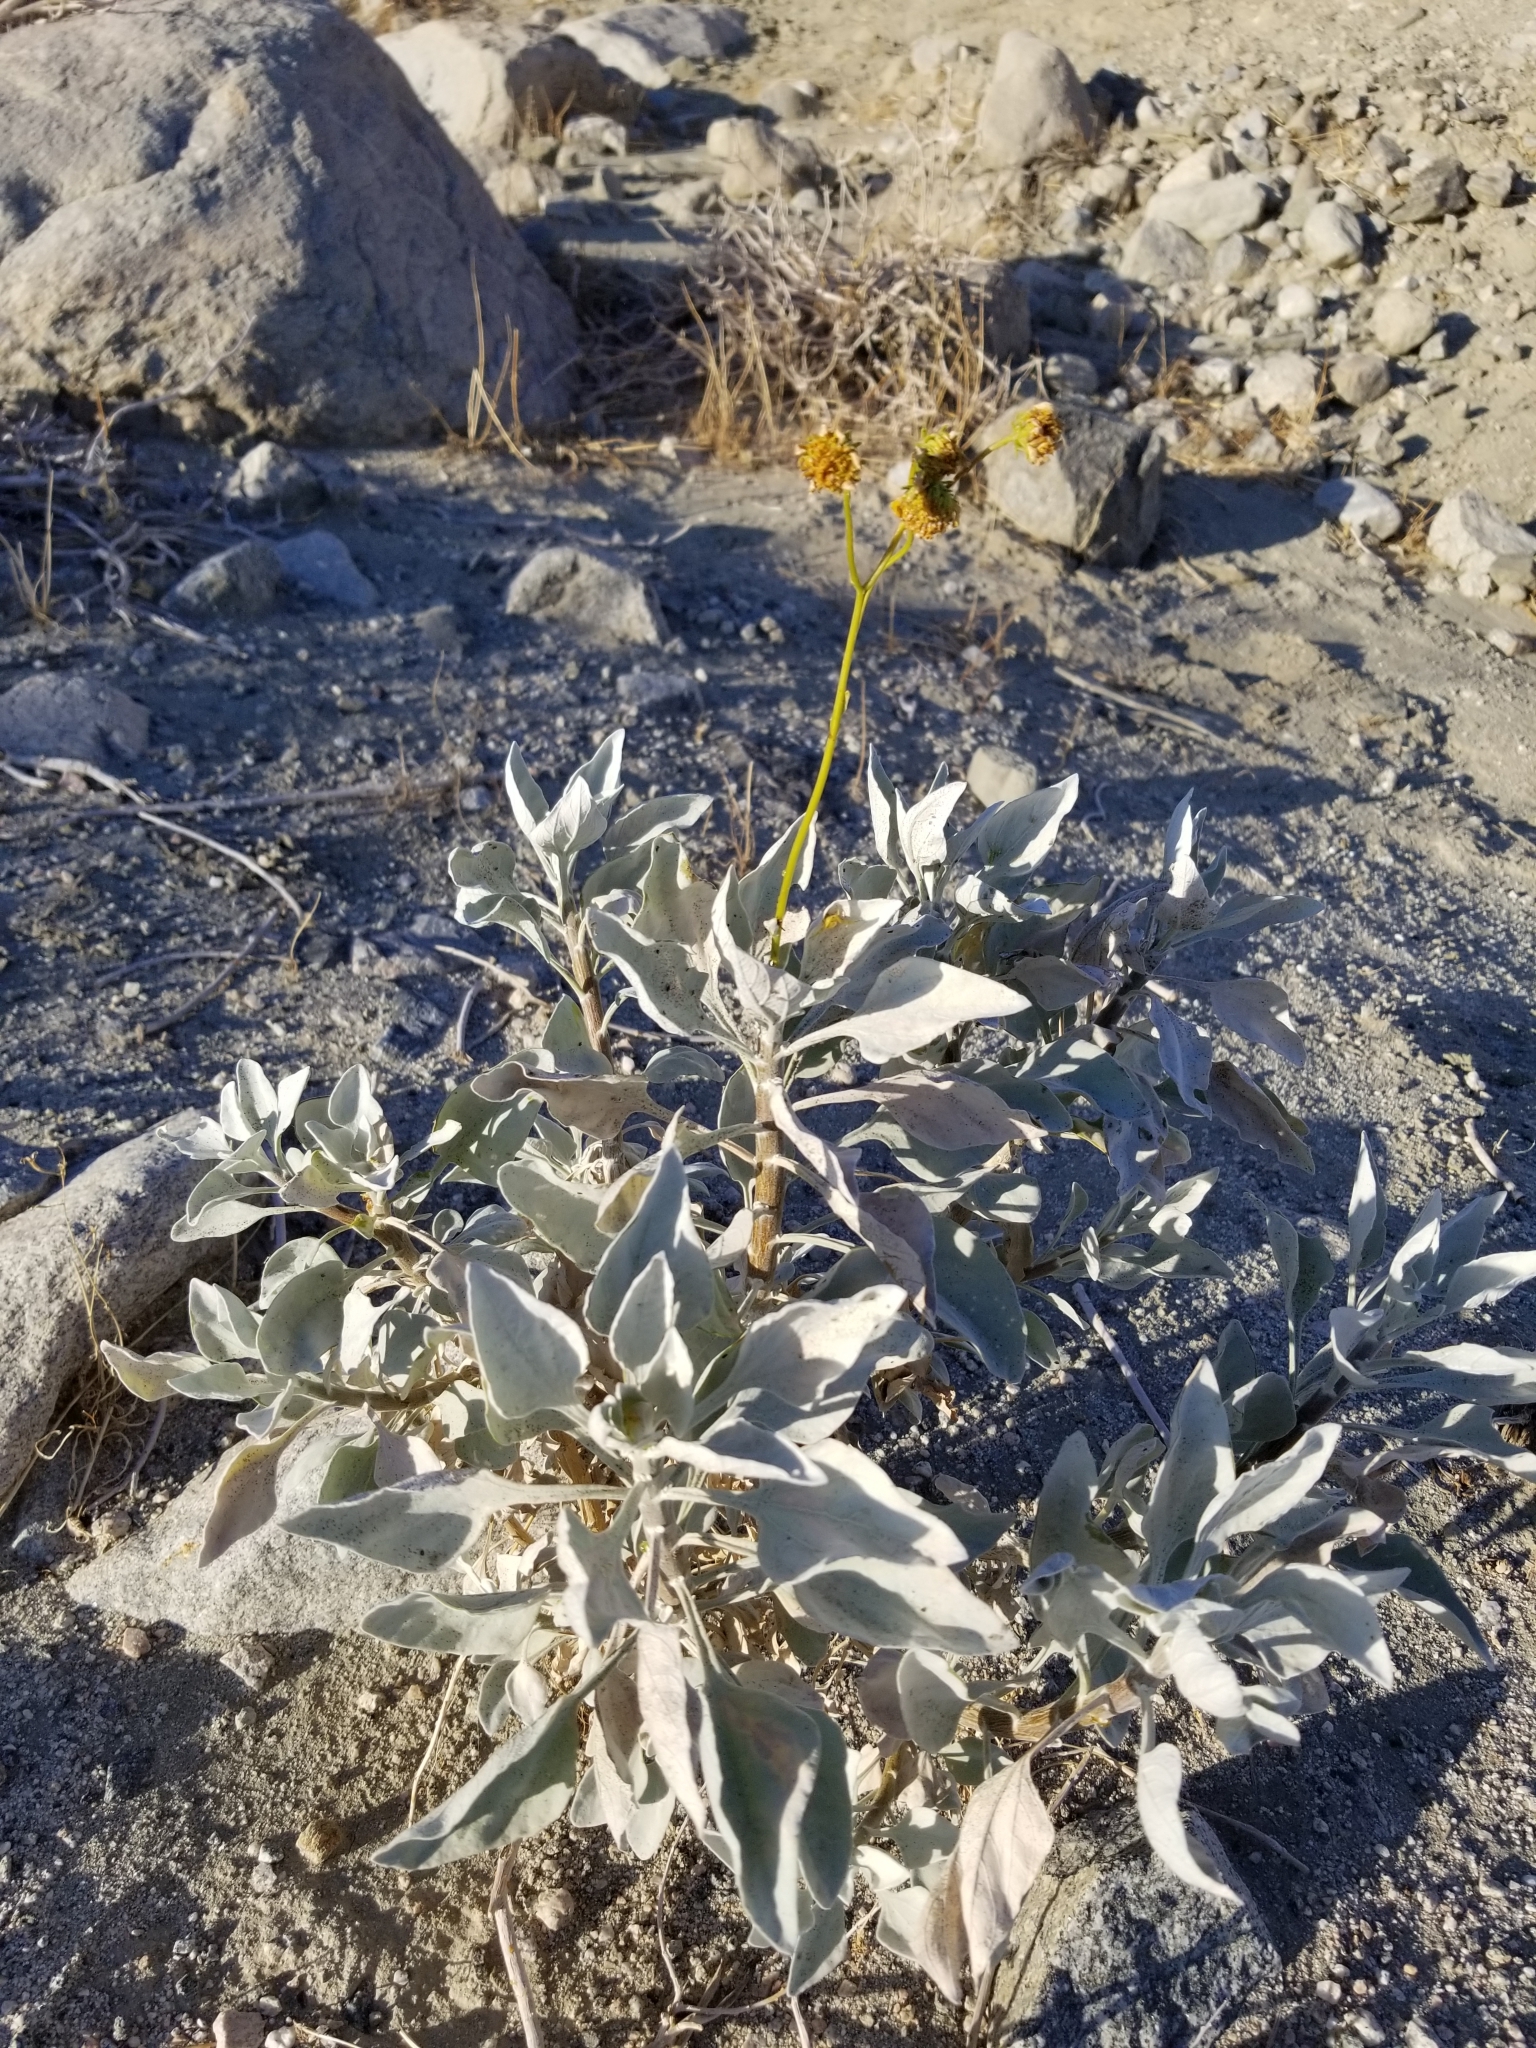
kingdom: Plantae
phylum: Tracheophyta
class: Magnoliopsida
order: Asterales
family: Asteraceae
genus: Encelia
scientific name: Encelia farinosa
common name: Brittlebush
